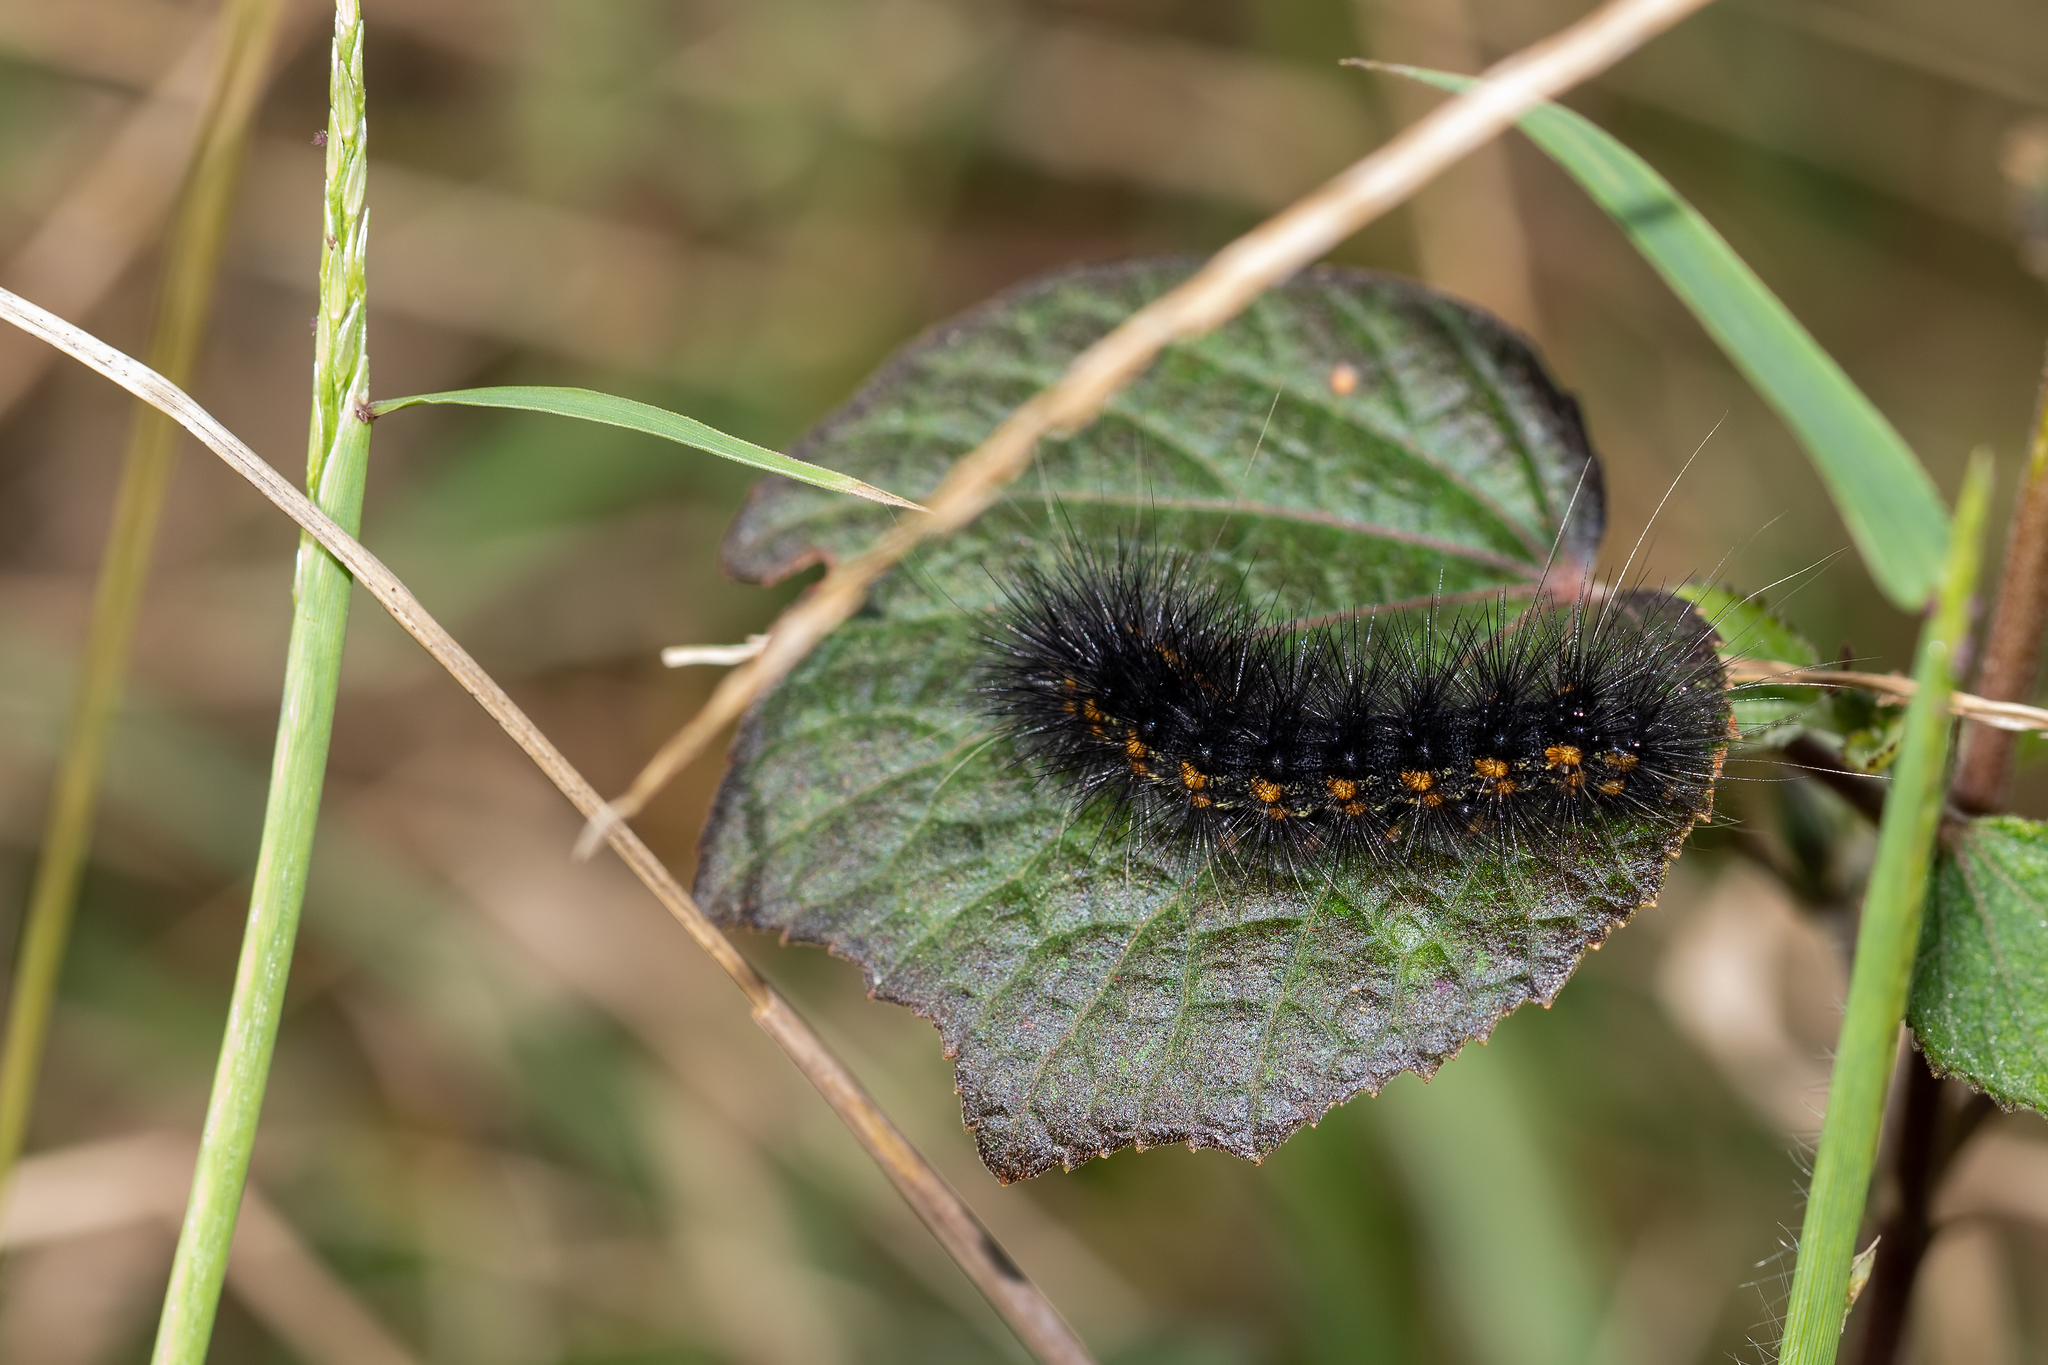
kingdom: Animalia
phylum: Arthropoda
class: Insecta
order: Lepidoptera
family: Erebidae
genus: Estigmene
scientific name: Estigmene acrea
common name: Salt marsh moth
